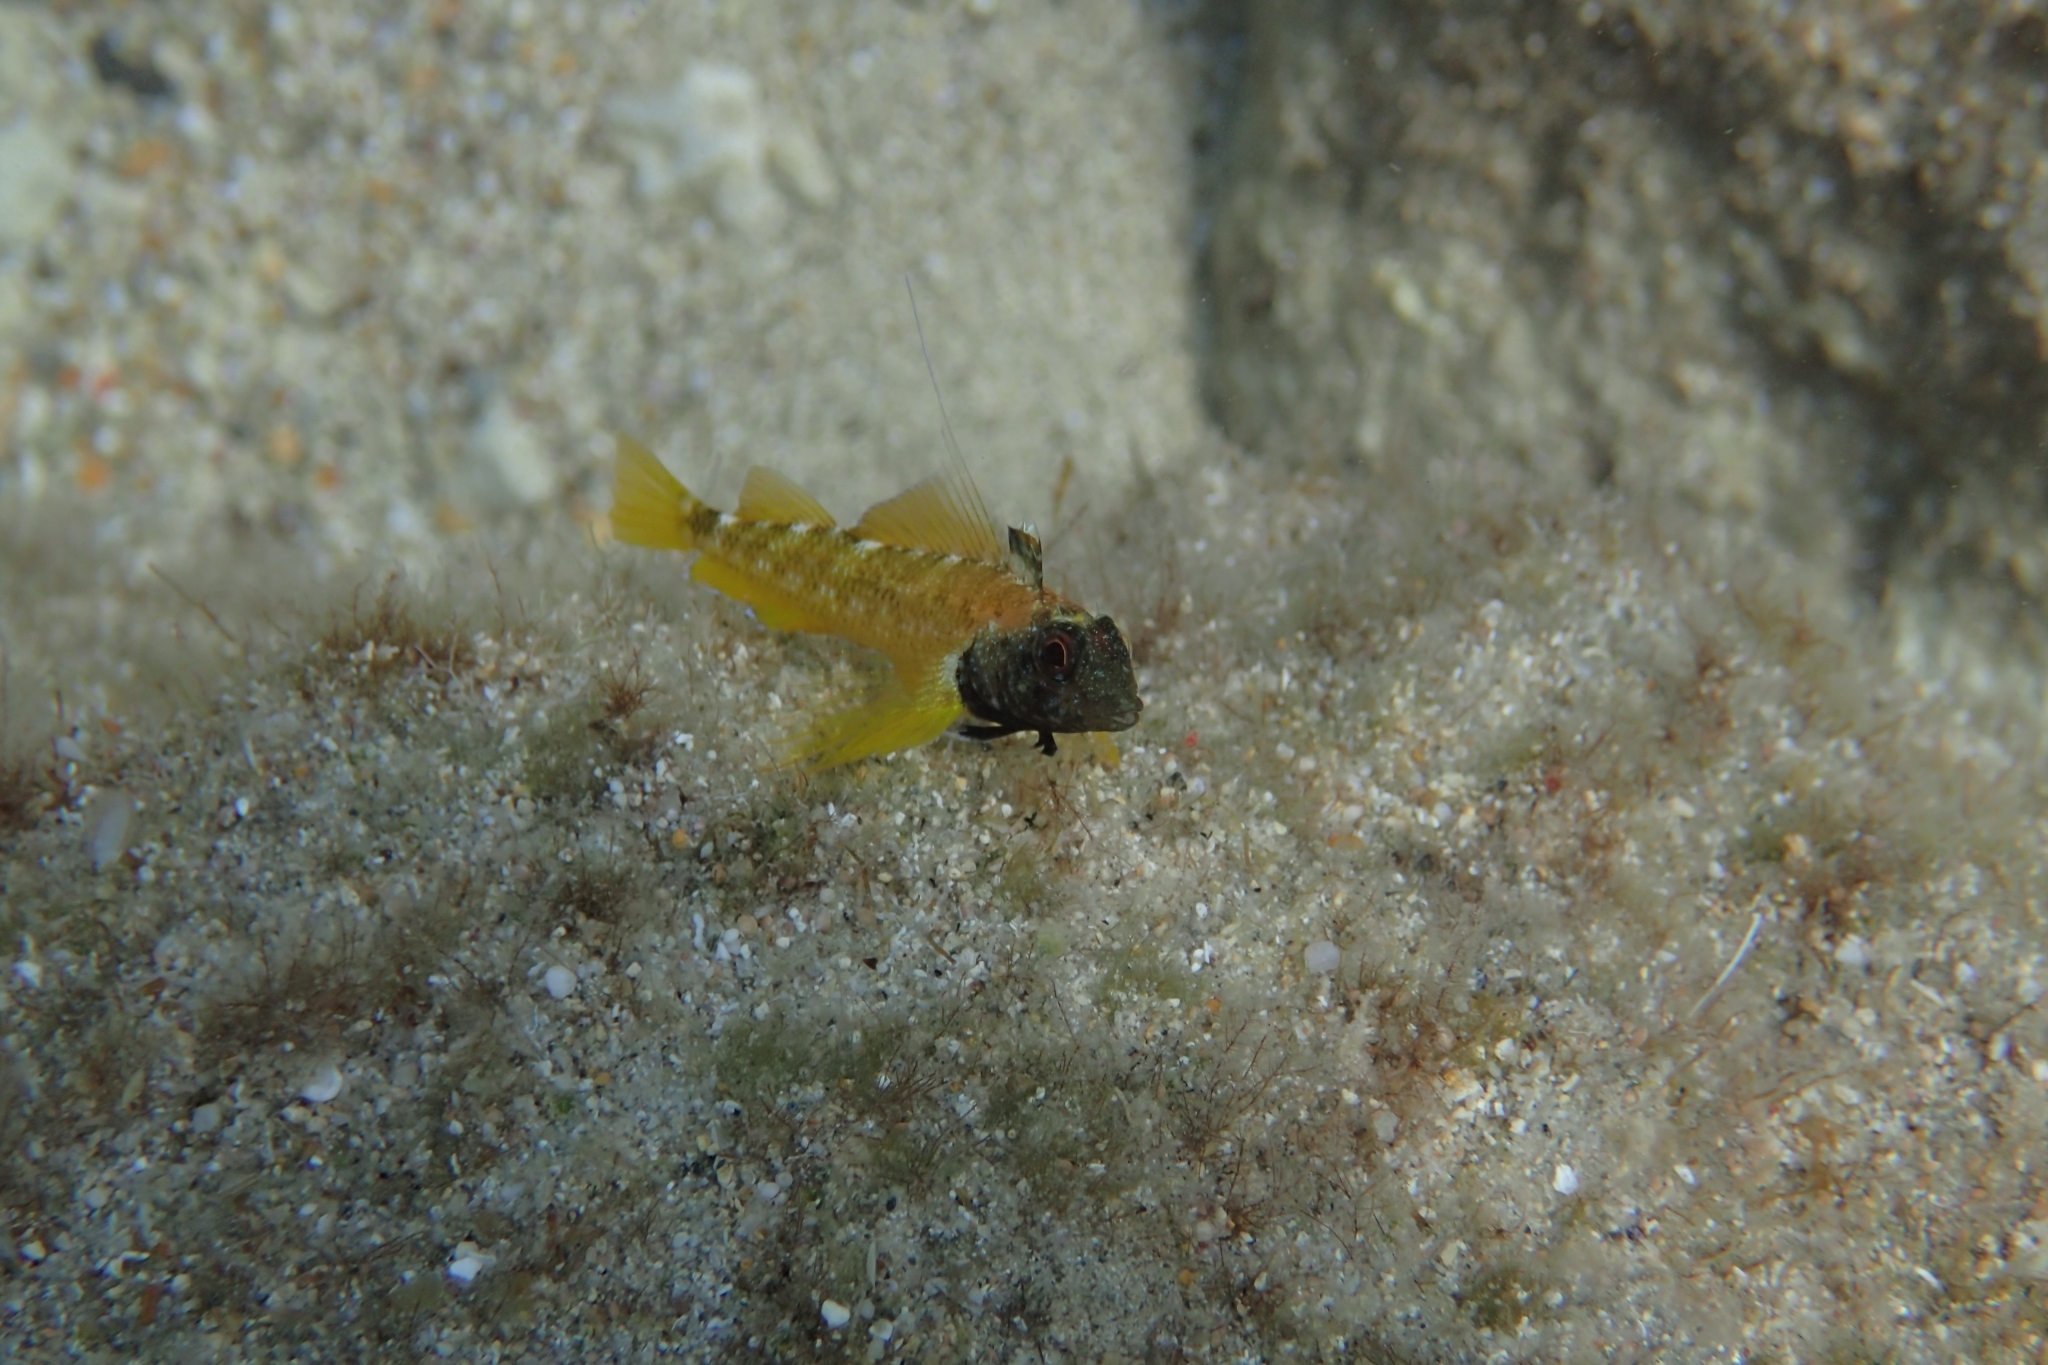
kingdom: Animalia
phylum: Chordata
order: Perciformes
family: Tripterygiidae
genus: Tripterygion
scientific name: Tripterygion delaisi
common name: Black-face blenny
